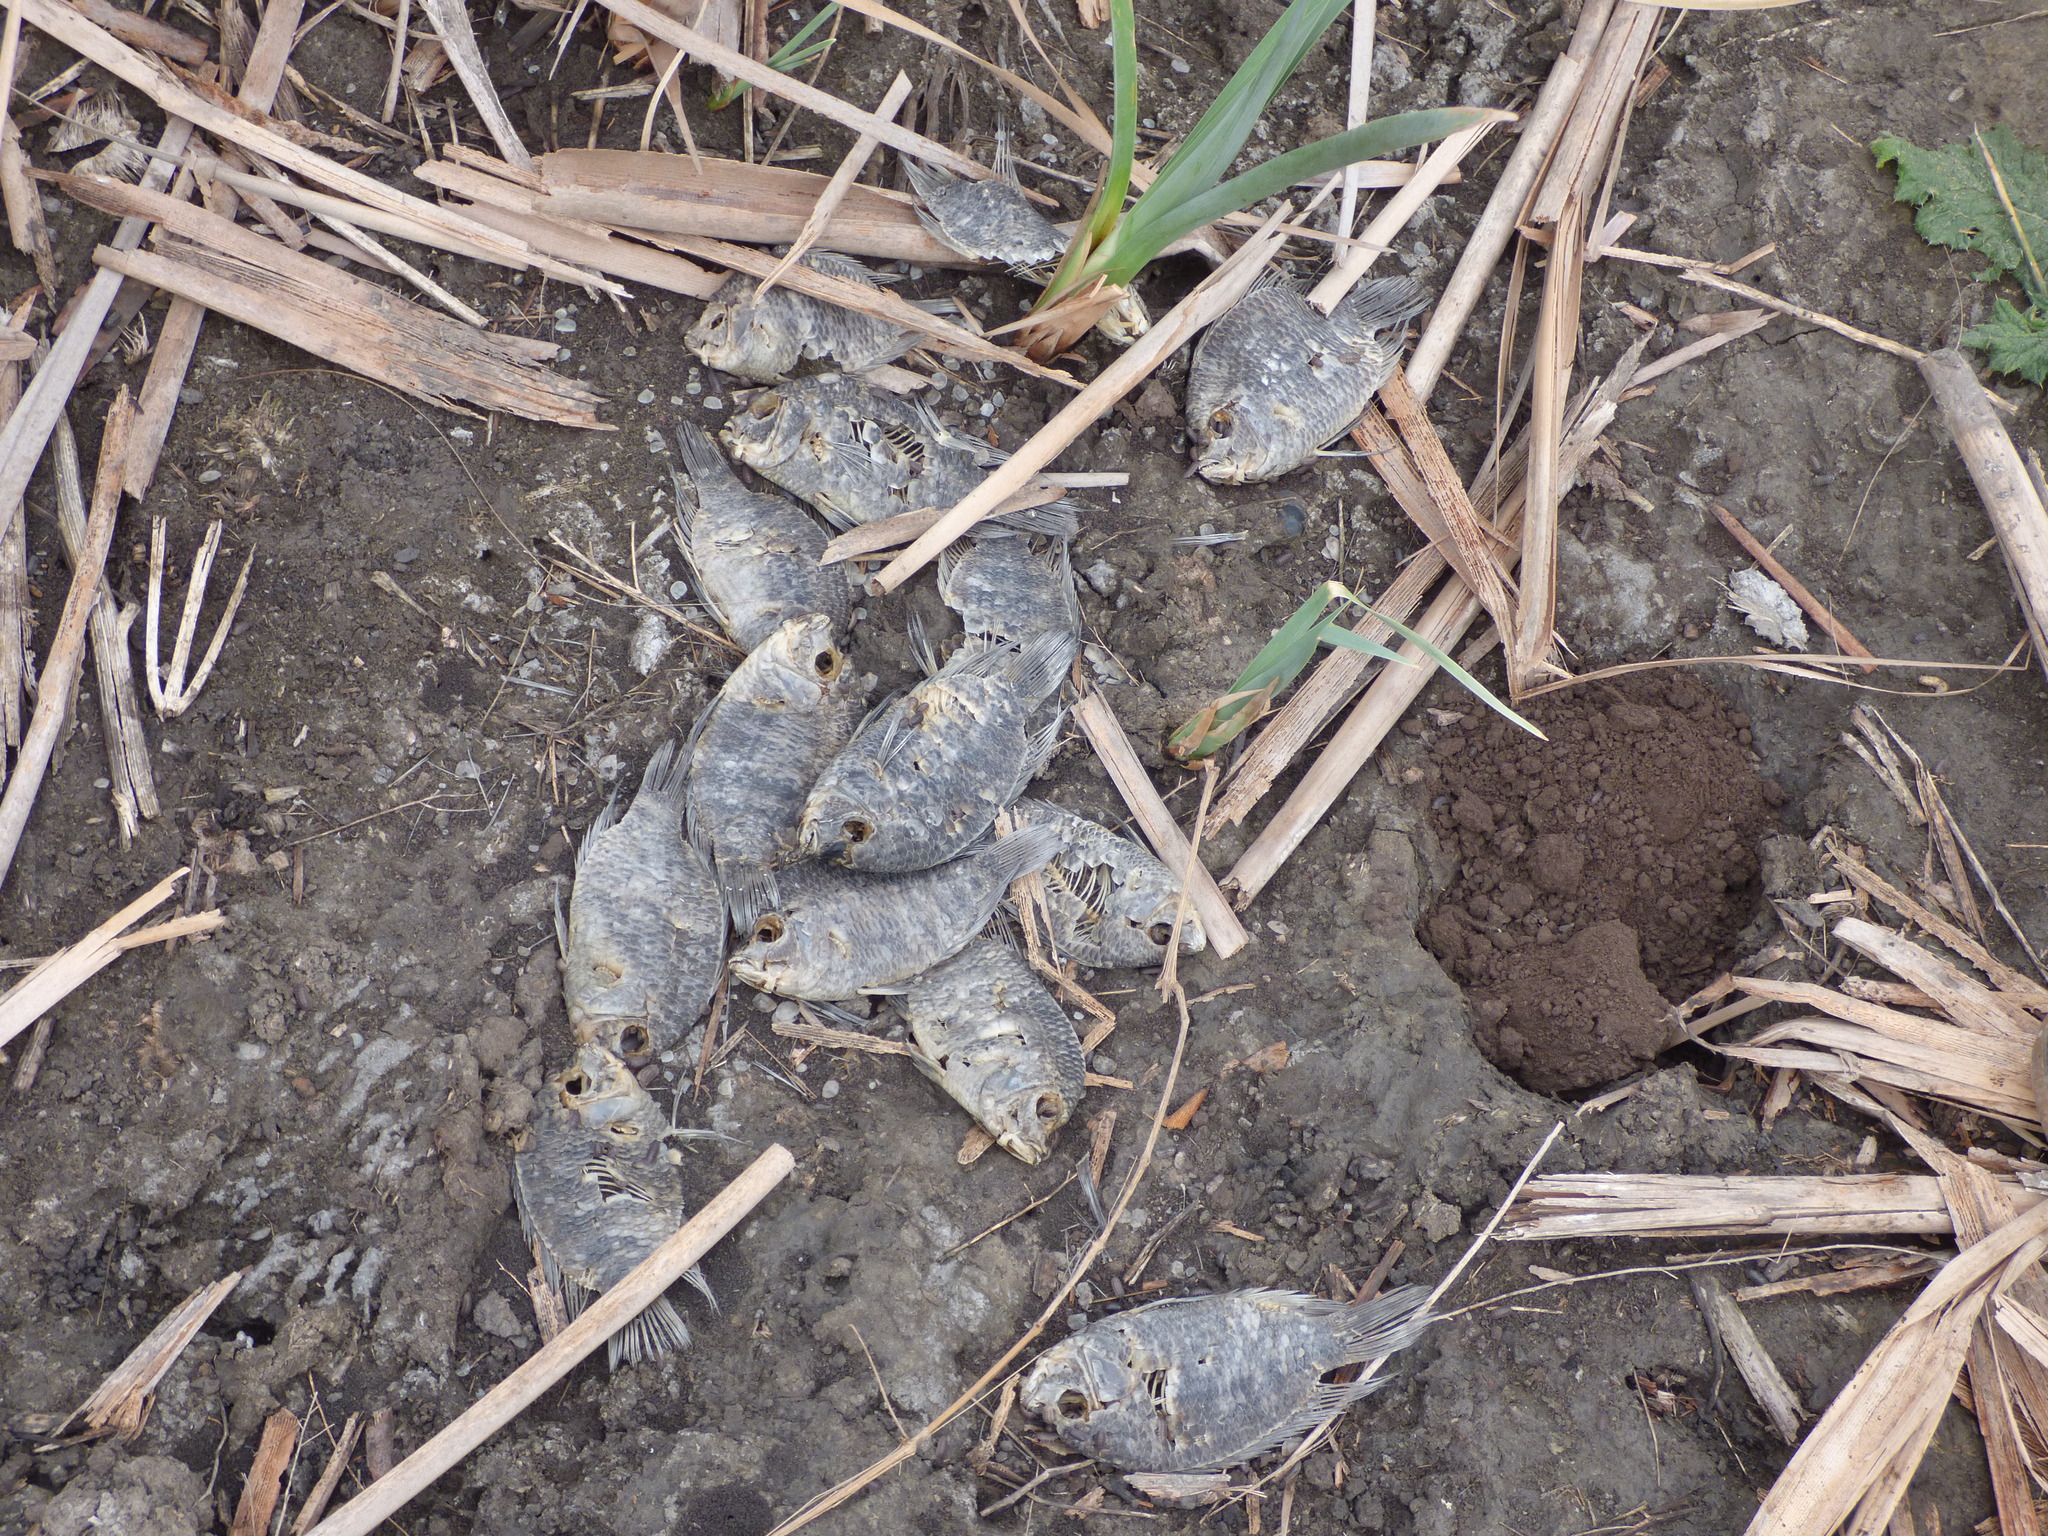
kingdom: Animalia
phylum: Chordata
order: Perciformes
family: Cichlidae
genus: Australoheros
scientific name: Australoheros facetus
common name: Chameleon cichlid
